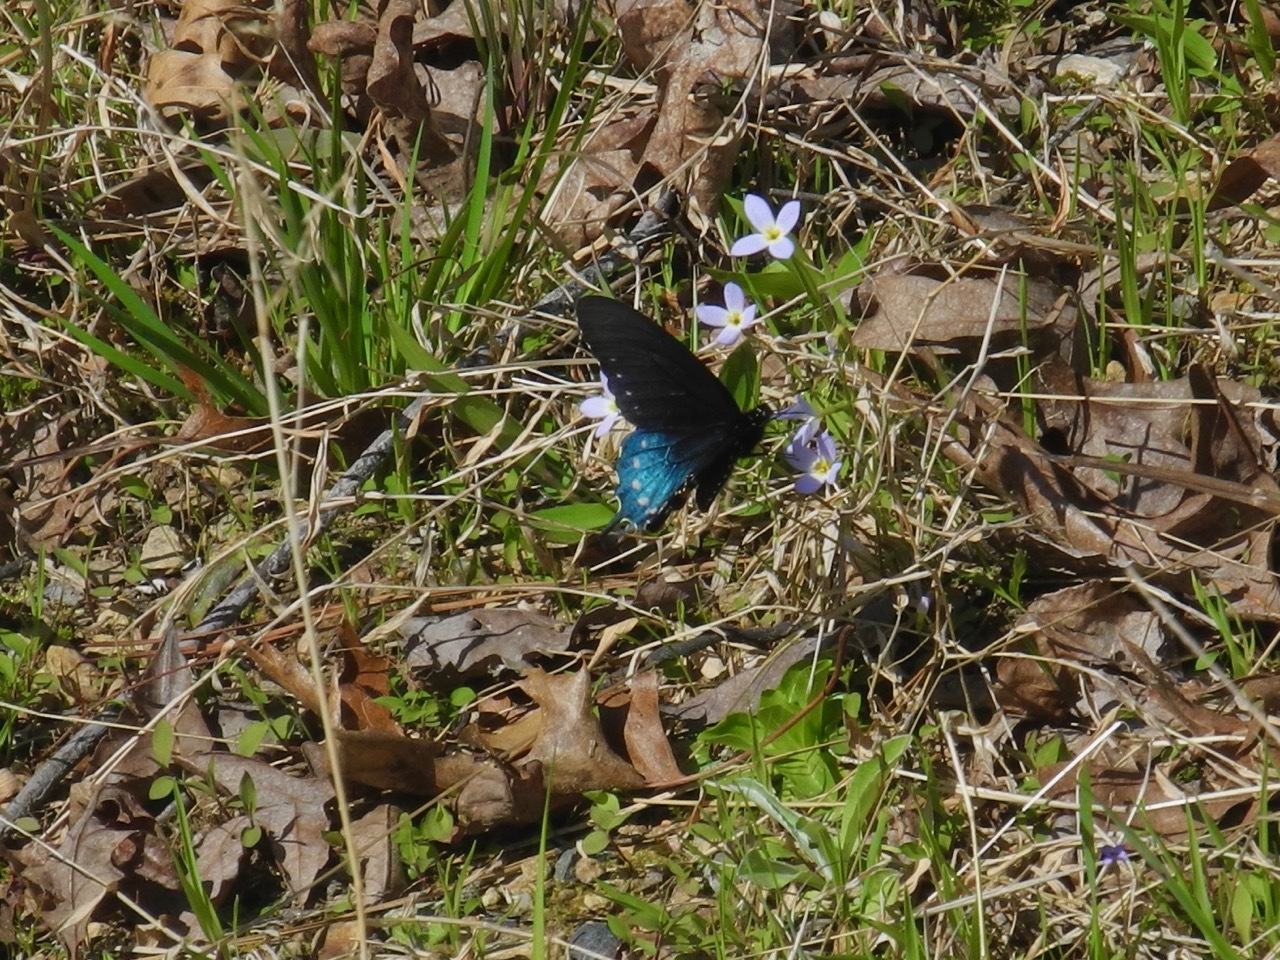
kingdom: Animalia
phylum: Arthropoda
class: Insecta
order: Lepidoptera
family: Papilionidae
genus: Battus
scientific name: Battus philenor
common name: Pipevine swallowtail
